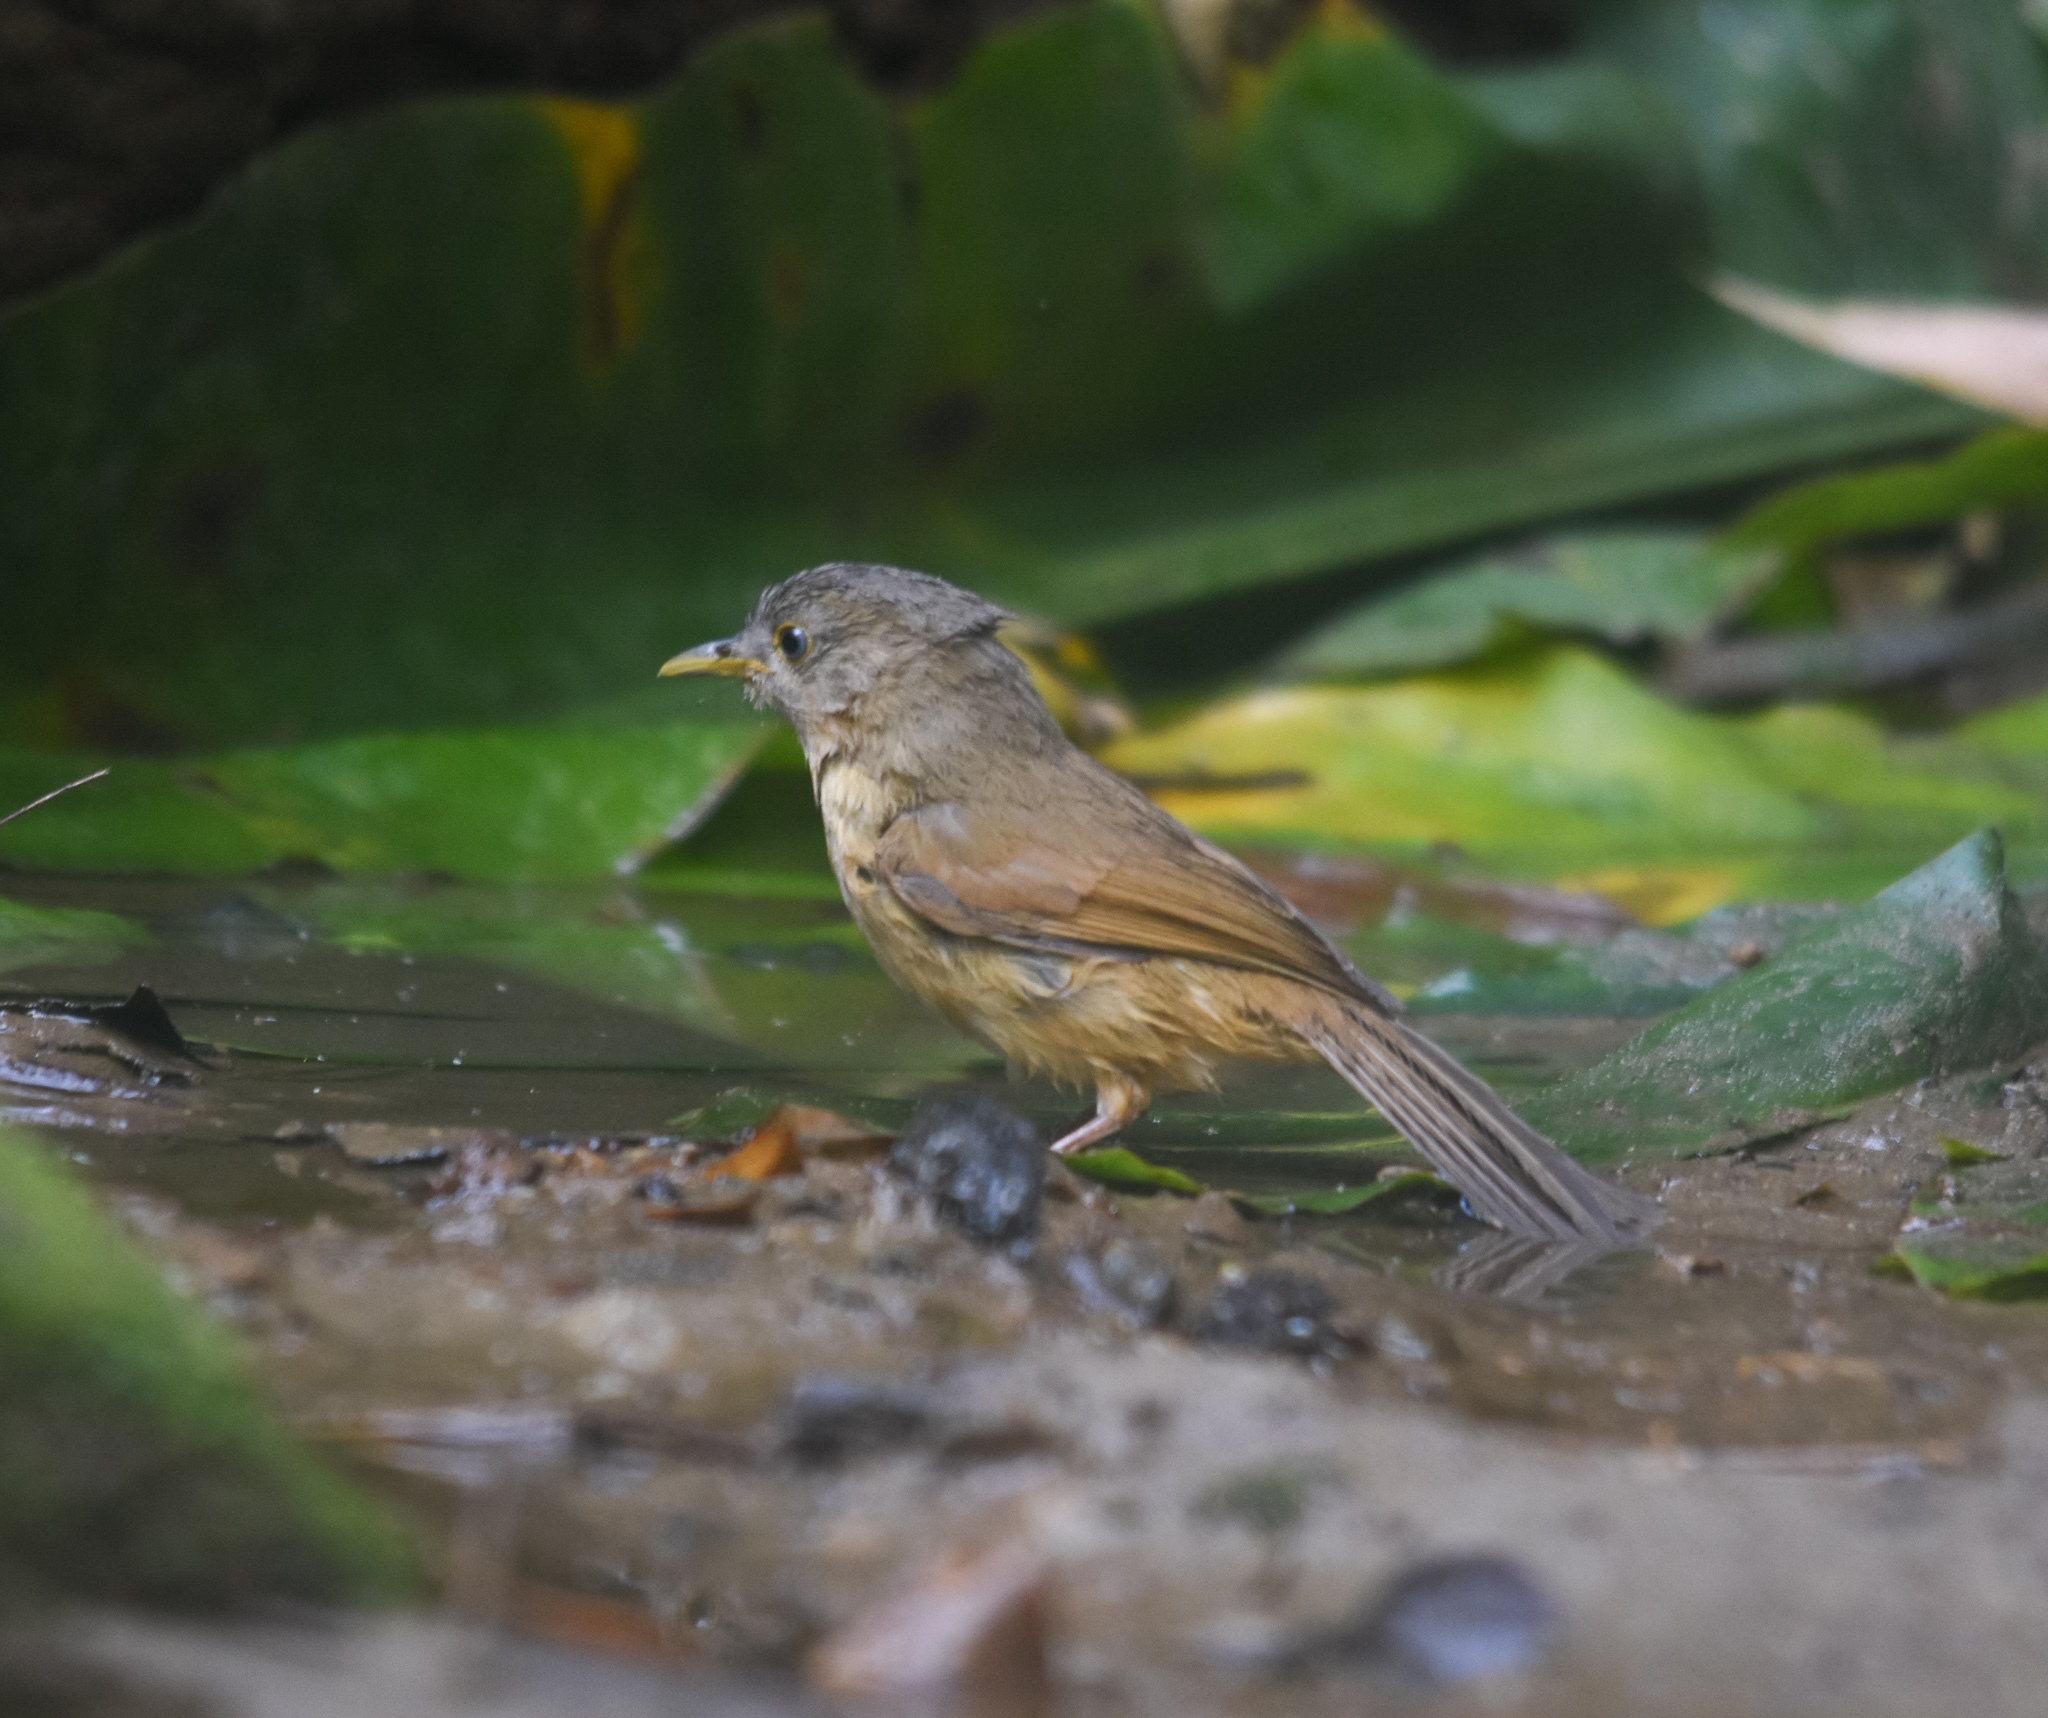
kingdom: Animalia
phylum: Chordata
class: Aves
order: Passeriformes
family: Pellorneidae
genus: Alcippe
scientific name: Alcippe poioicephala
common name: Brown-cheeked fulvetta
